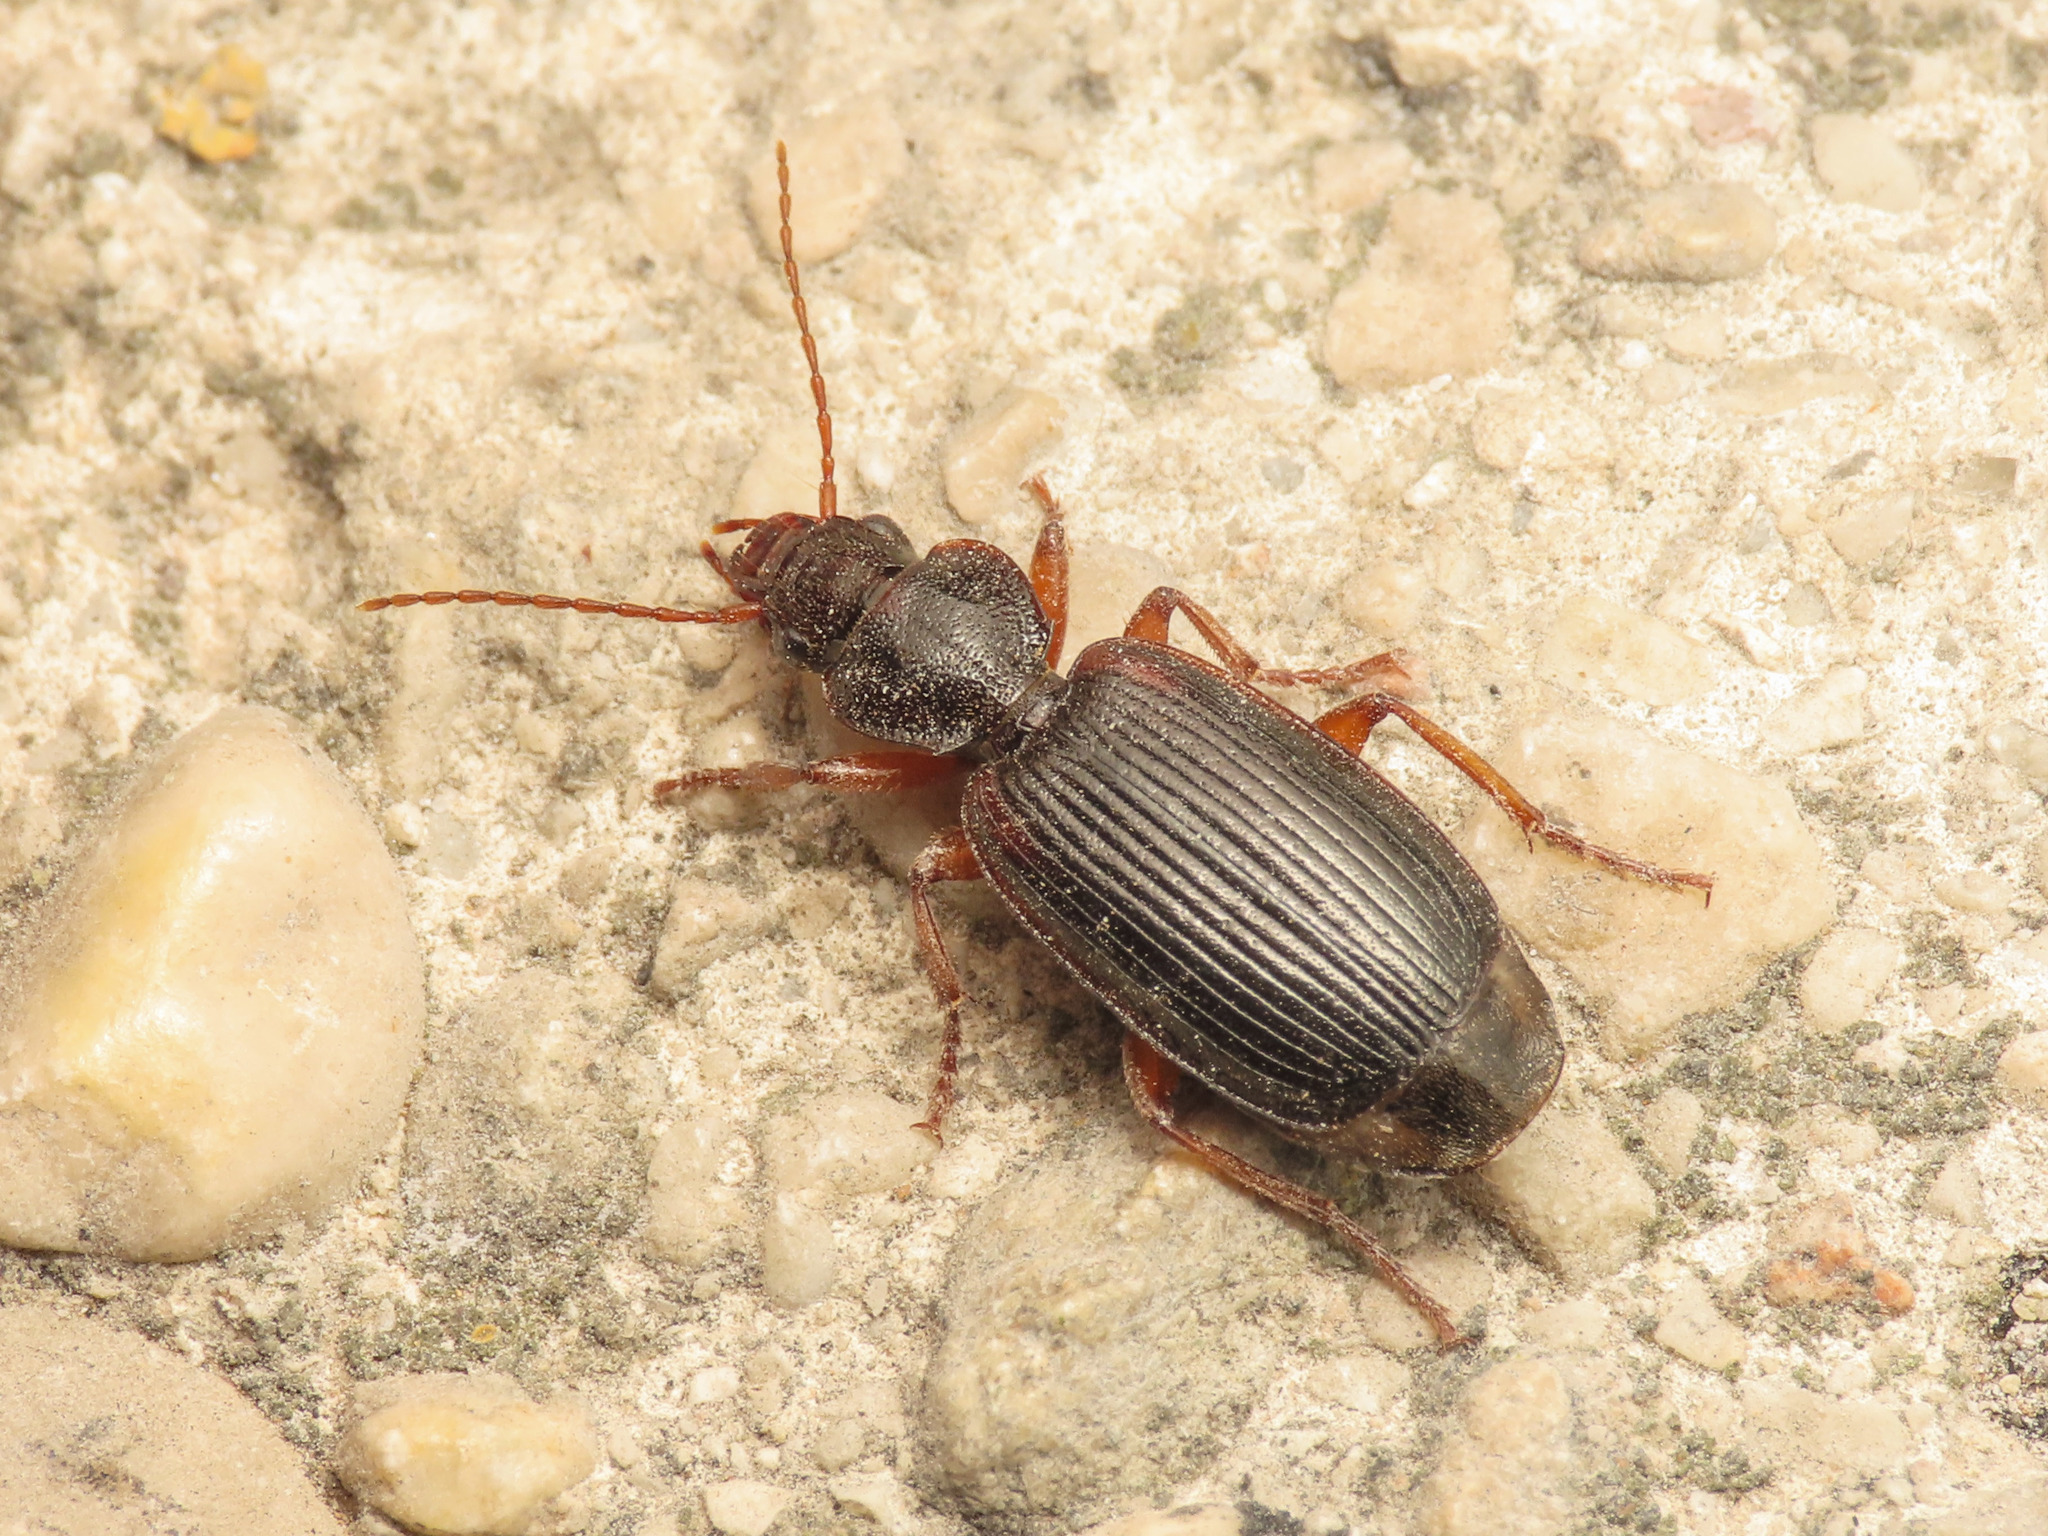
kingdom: Animalia
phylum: Arthropoda
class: Insecta
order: Coleoptera
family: Carabidae
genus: Cymindis
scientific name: Cymindis etrusca
